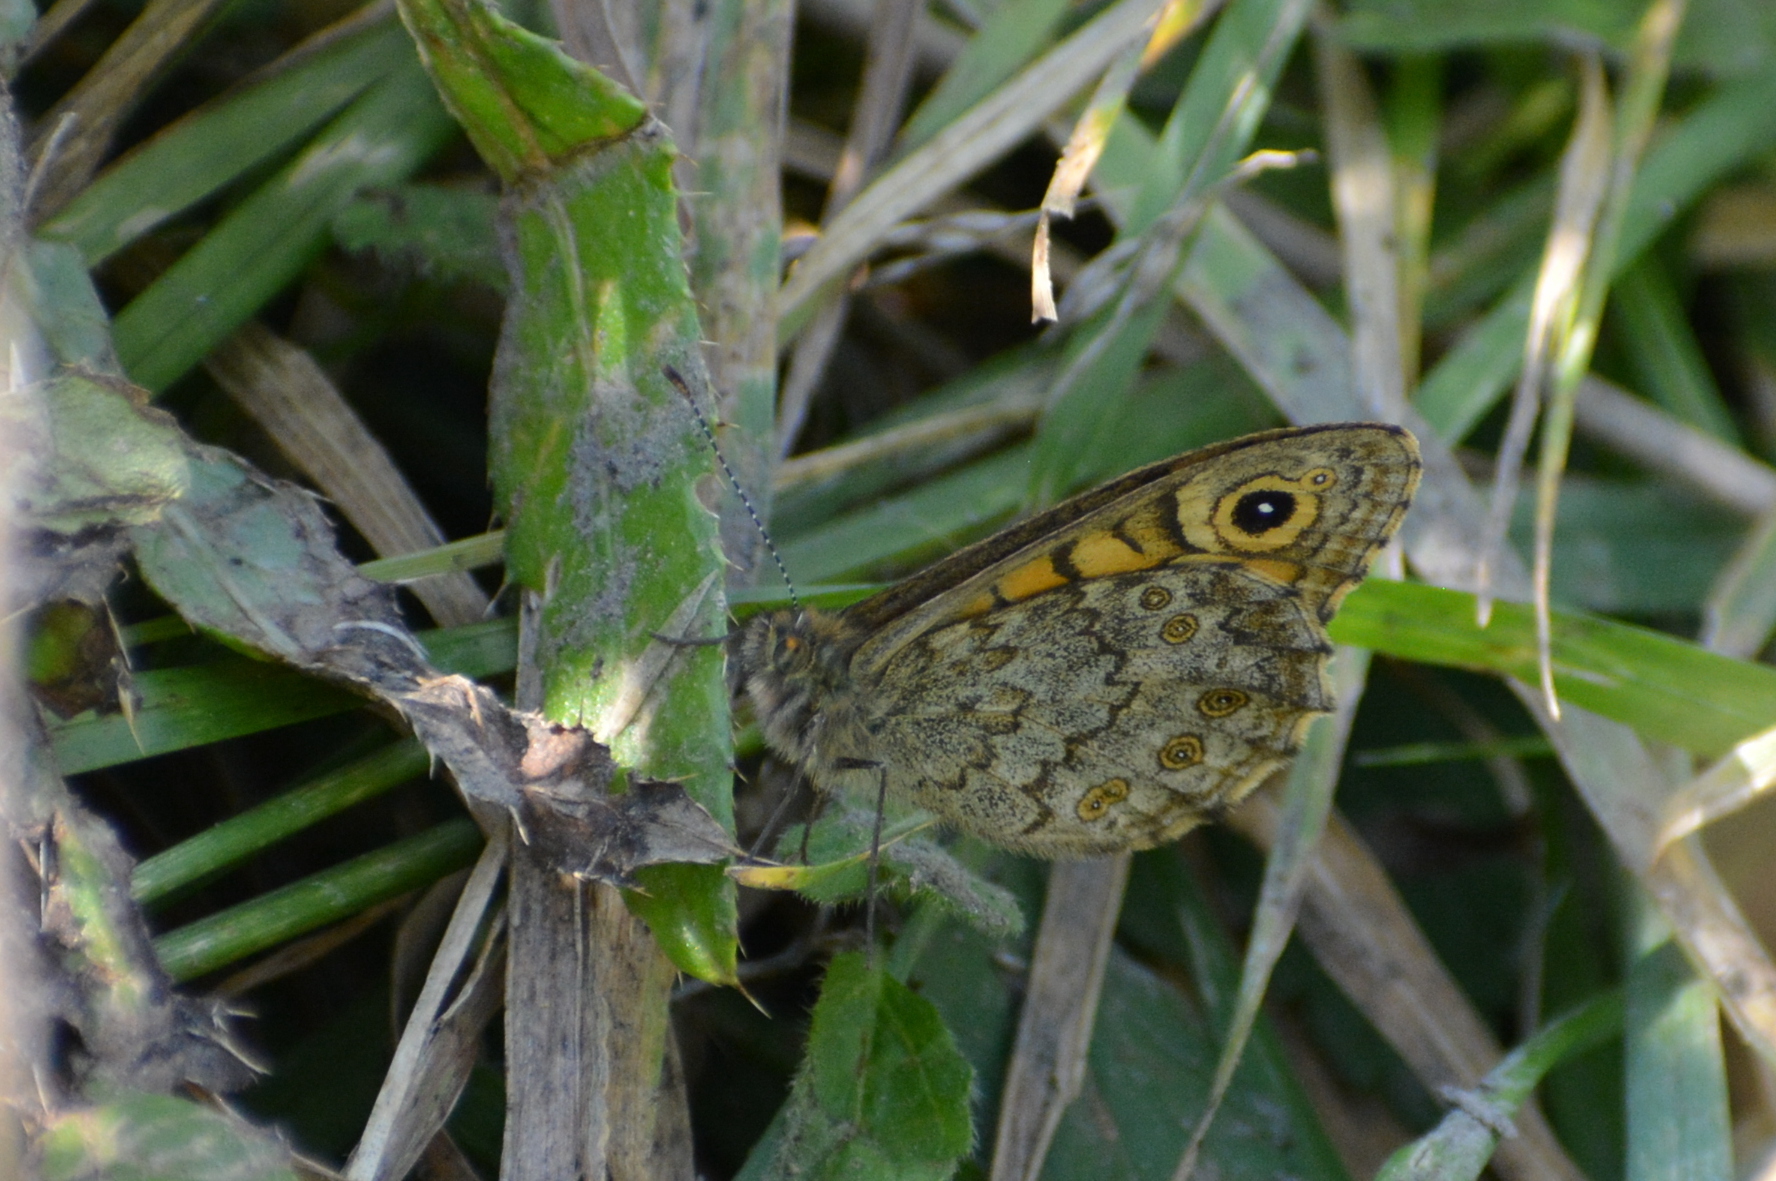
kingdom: Animalia
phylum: Arthropoda
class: Insecta
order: Lepidoptera
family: Nymphalidae
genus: Pararge
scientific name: Pararge Lasiommata megera
